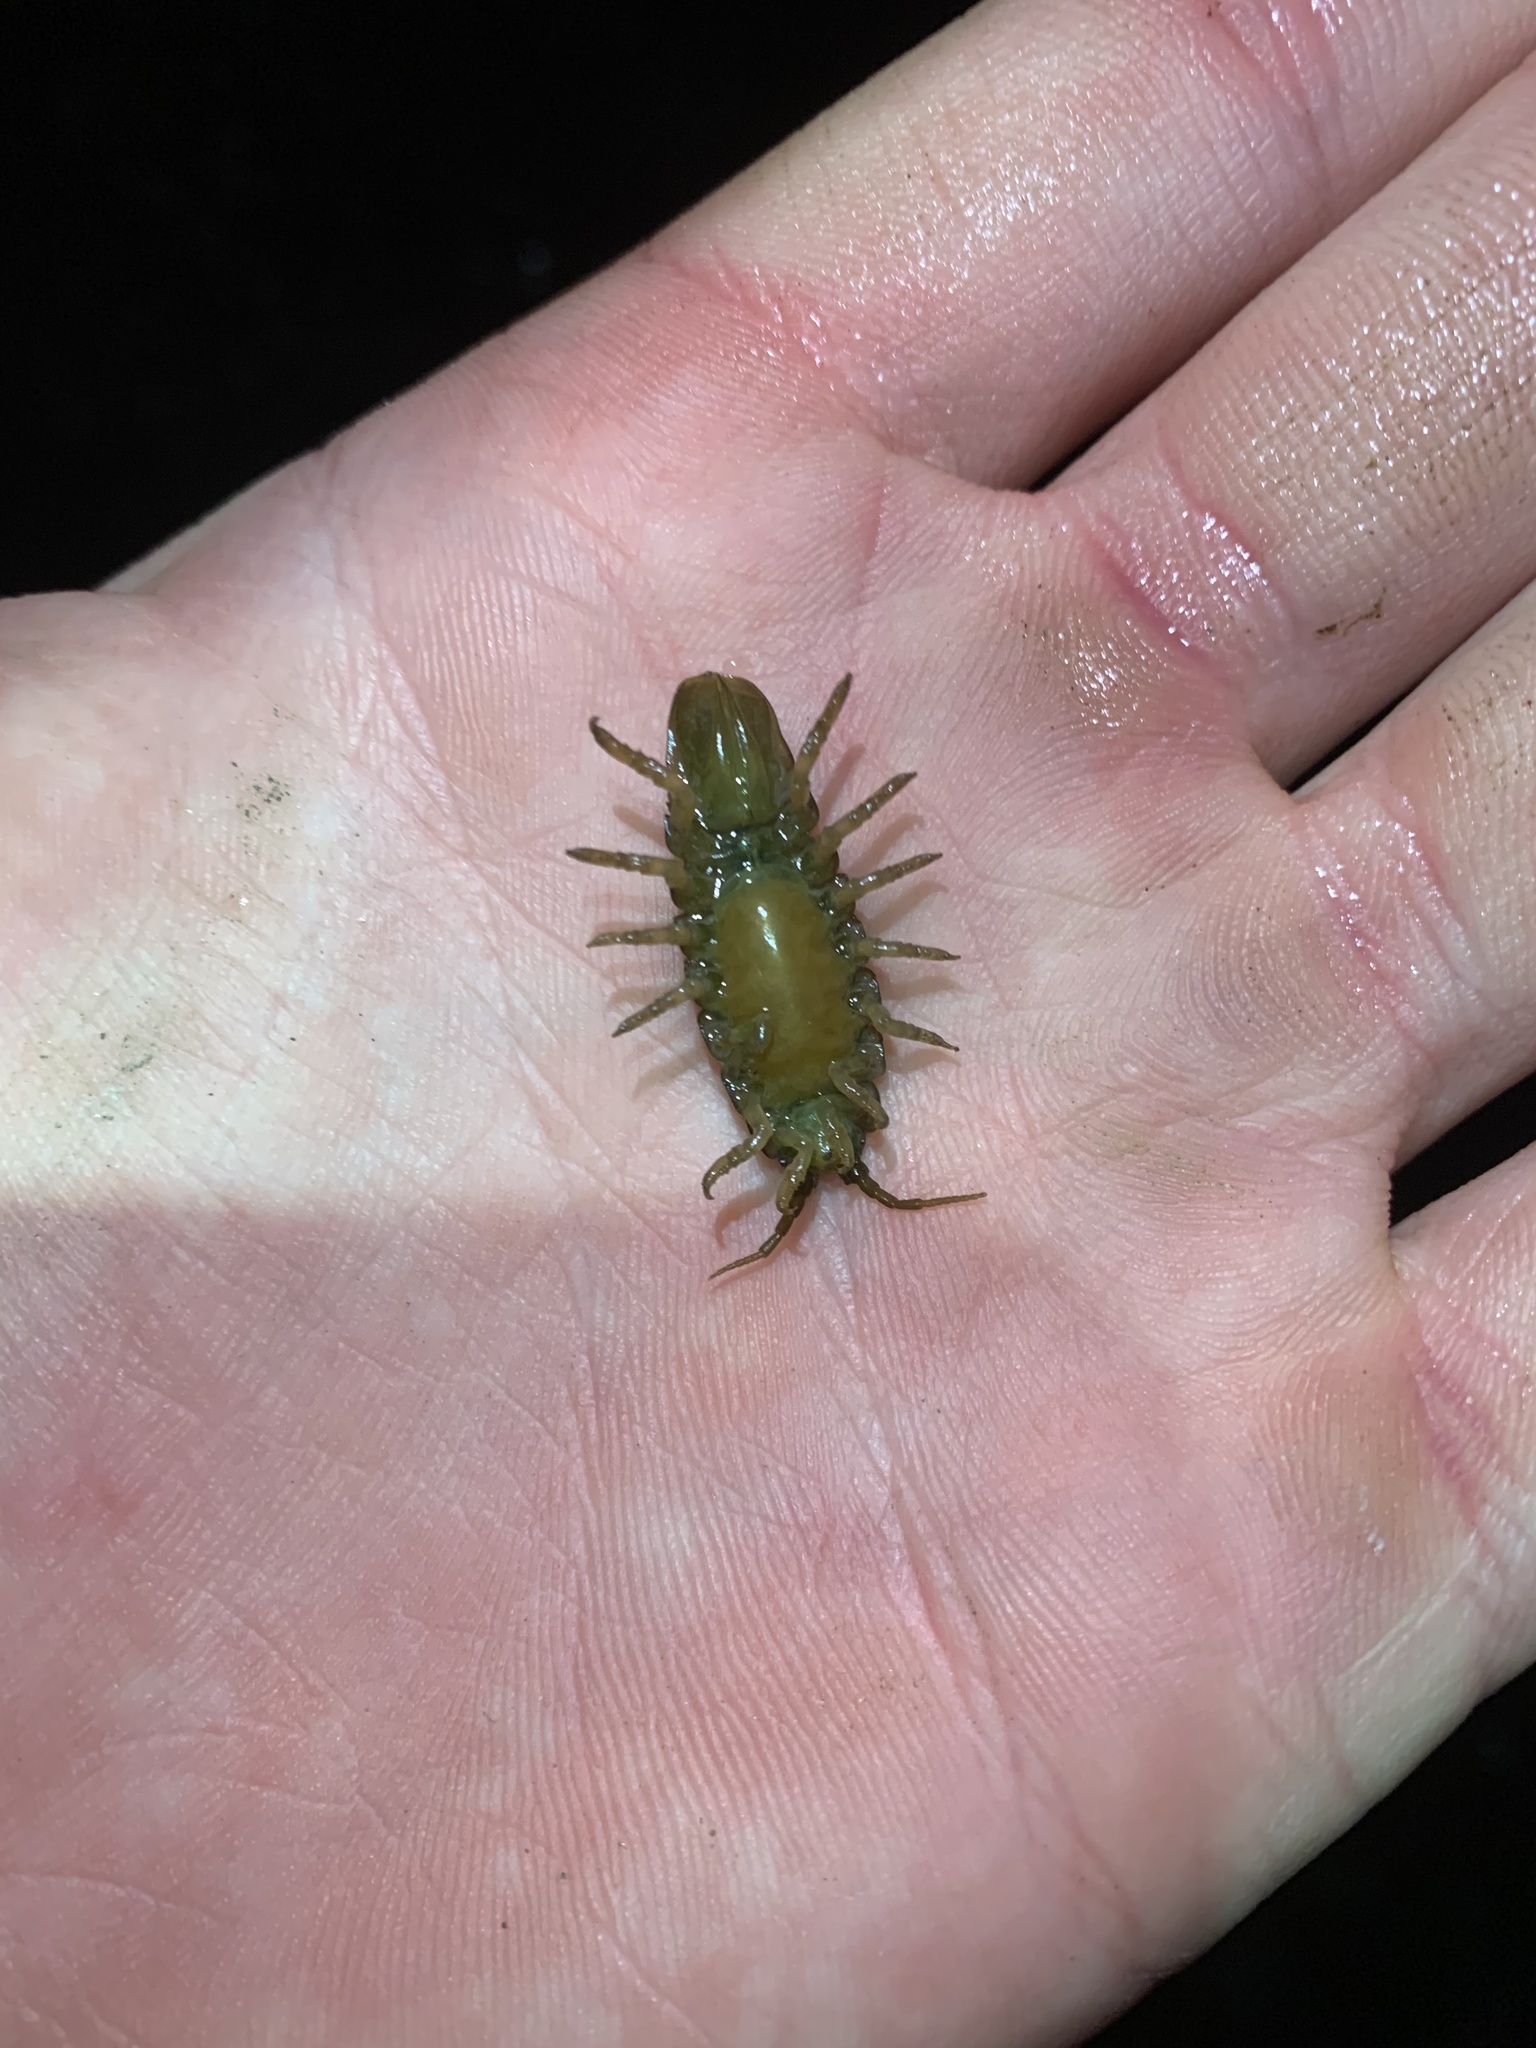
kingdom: Animalia
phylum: Arthropoda
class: Malacostraca
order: Isopoda
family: Idoteidae
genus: Pentidotea
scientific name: Pentidotea wosnesenskii
